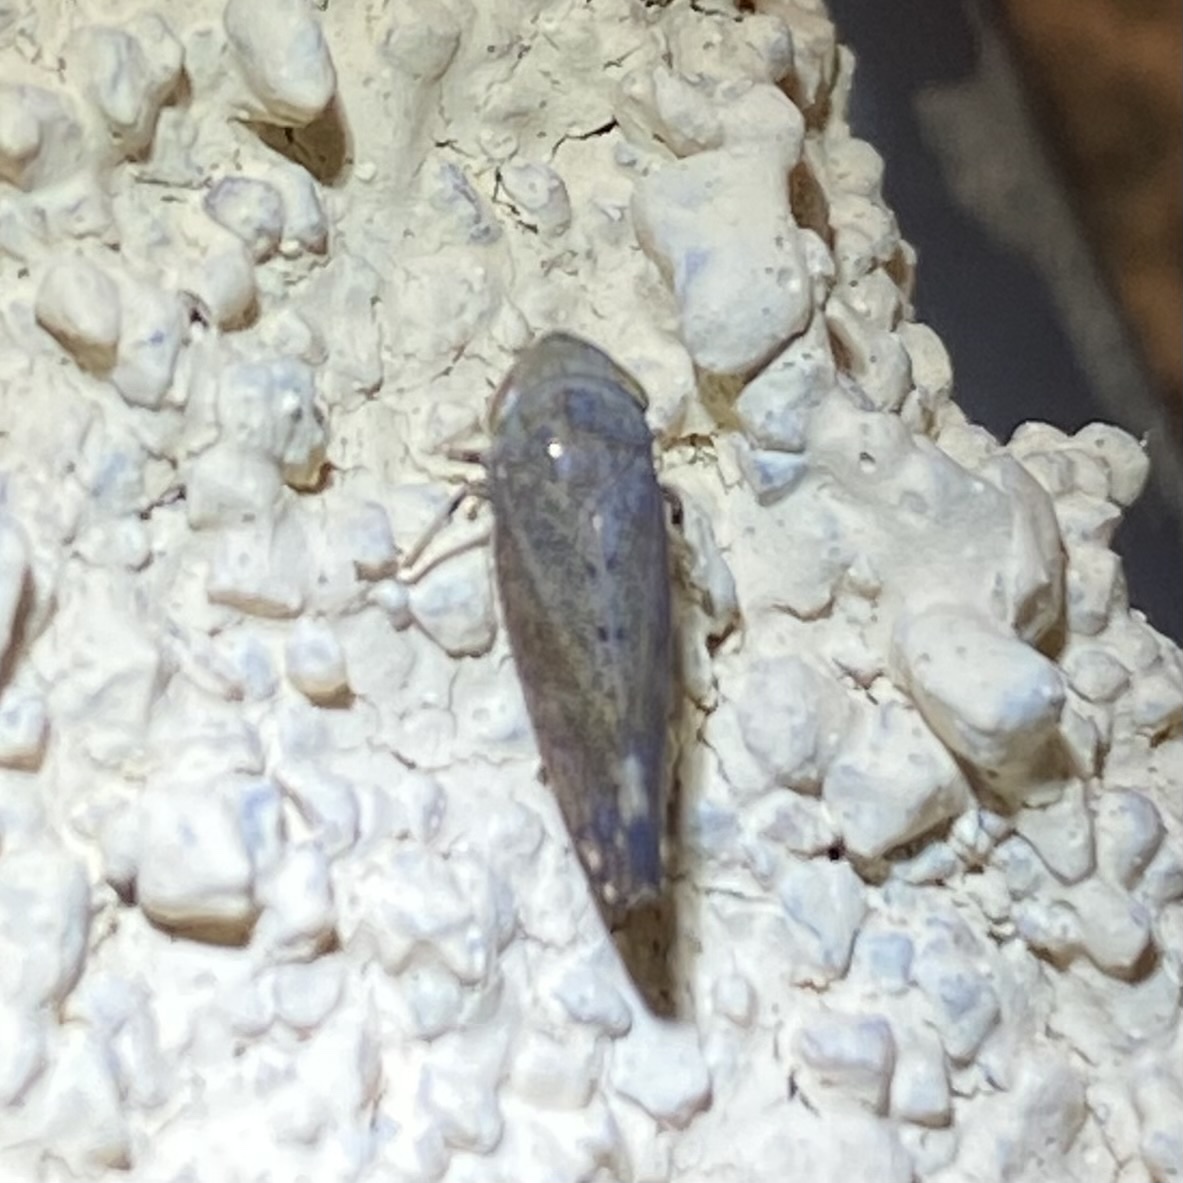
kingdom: Animalia
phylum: Arthropoda
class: Insecta
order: Hemiptera
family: Cicadellidae
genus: Fieberiella
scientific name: Fieberiella florii
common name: Flor’s leafhopper
